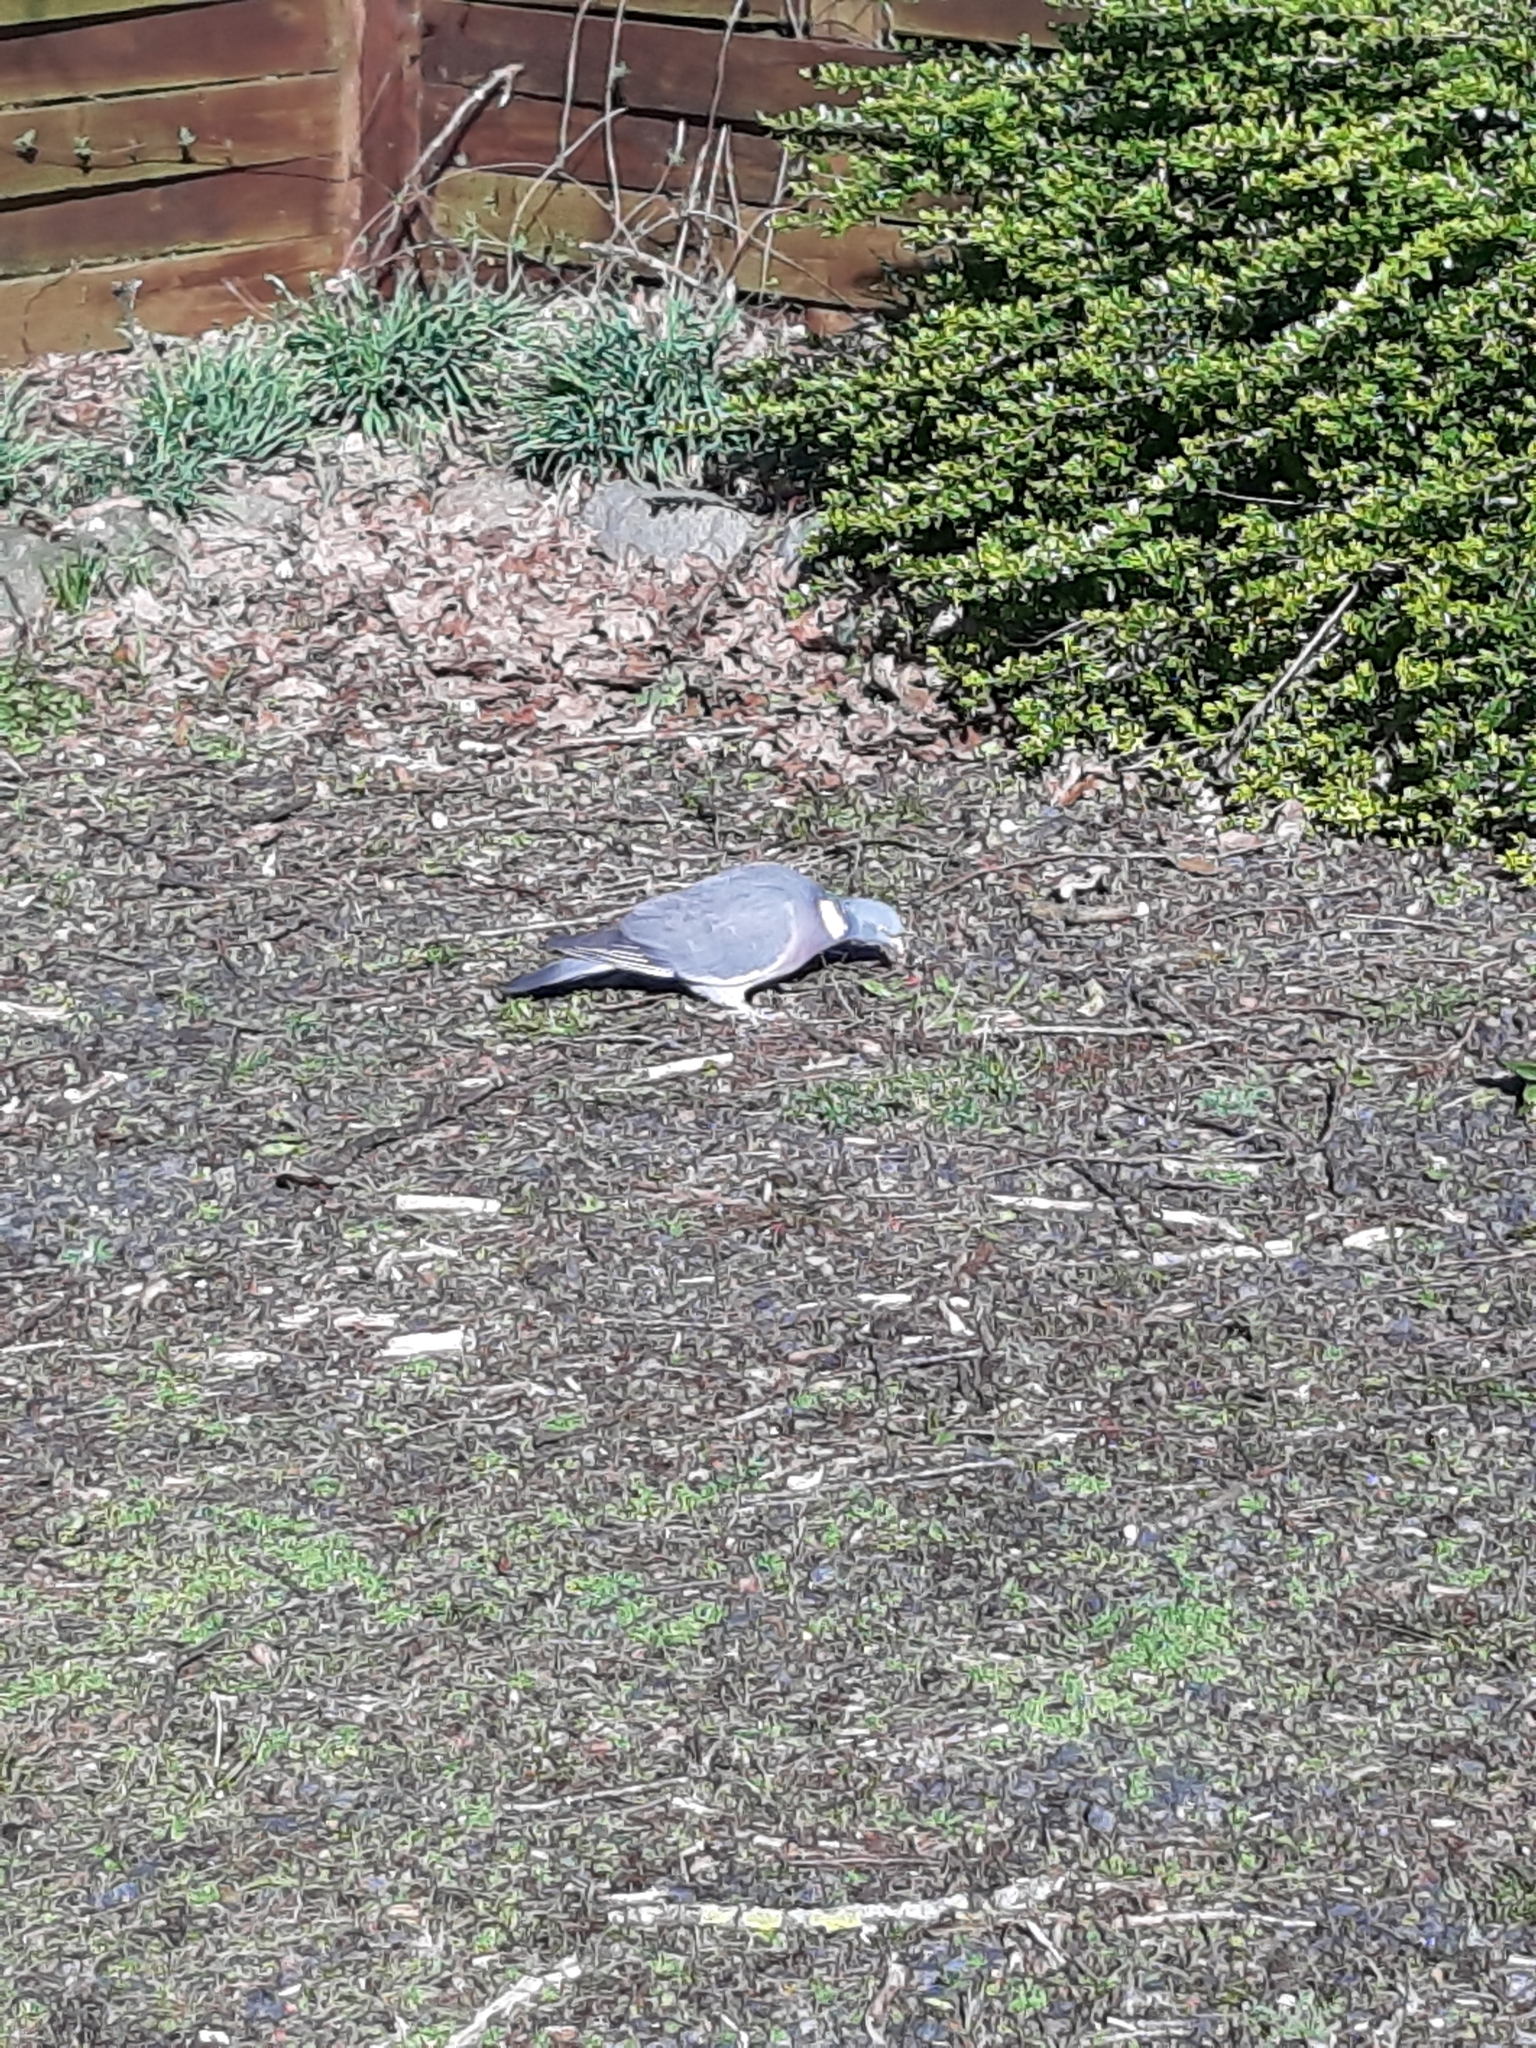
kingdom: Animalia
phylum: Chordata
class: Aves
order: Columbiformes
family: Columbidae
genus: Columba
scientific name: Columba palumbus
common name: Common wood pigeon
